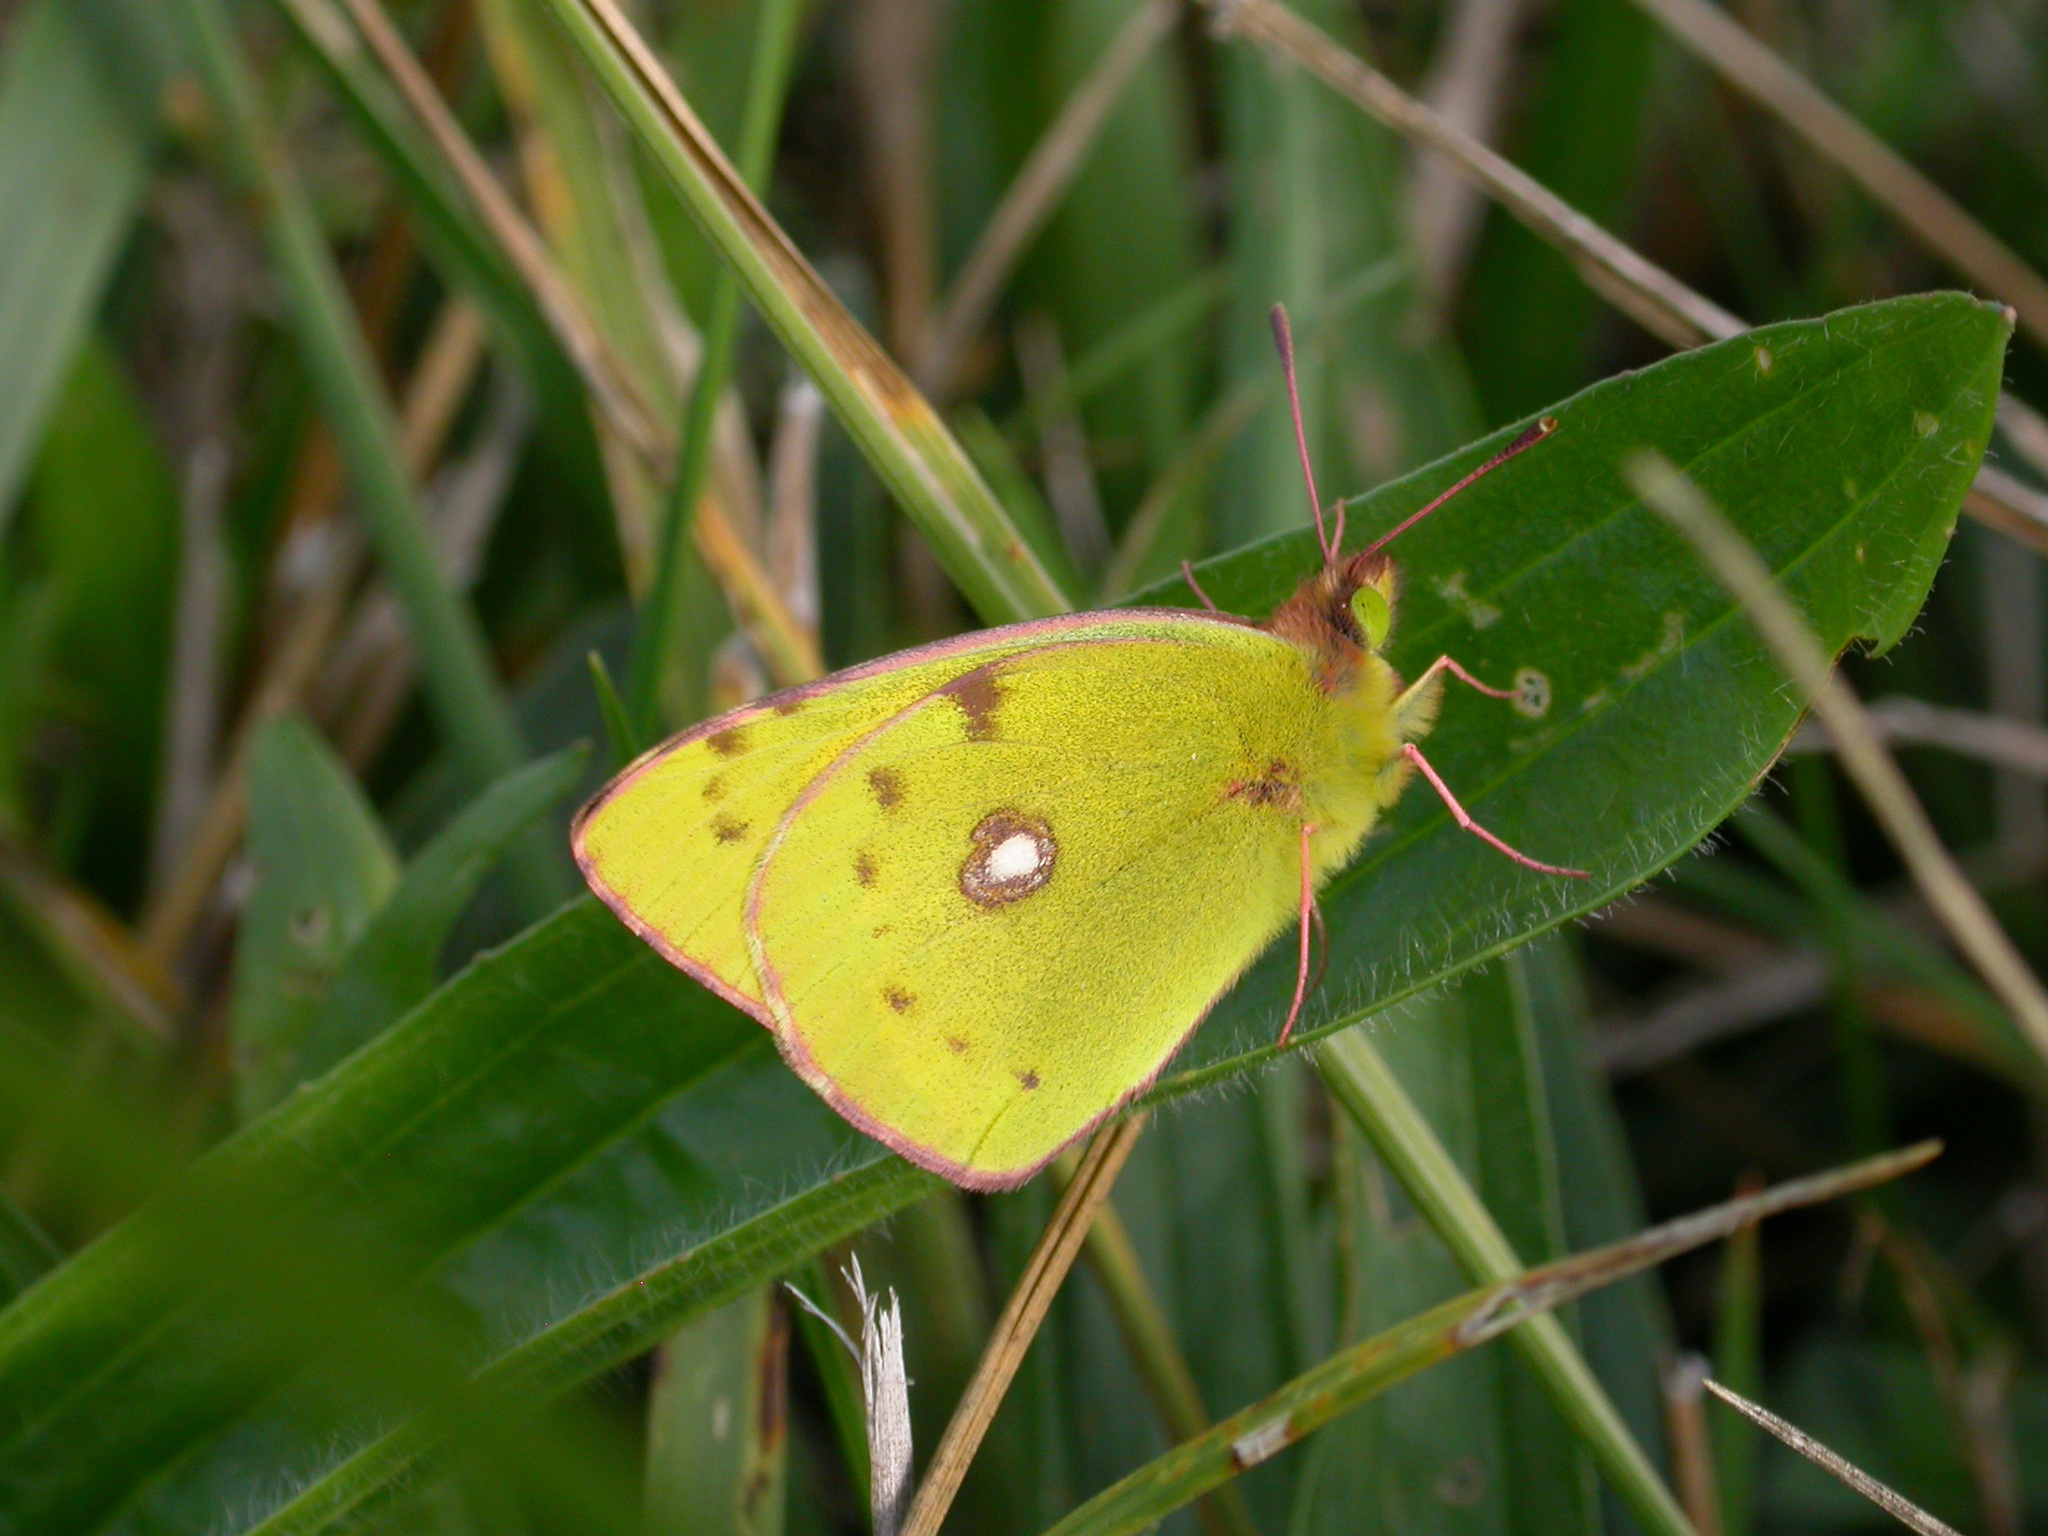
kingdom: Animalia
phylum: Arthropoda
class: Insecta
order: Lepidoptera
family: Pieridae
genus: Colias
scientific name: Colias croceus
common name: Clouded yellow
